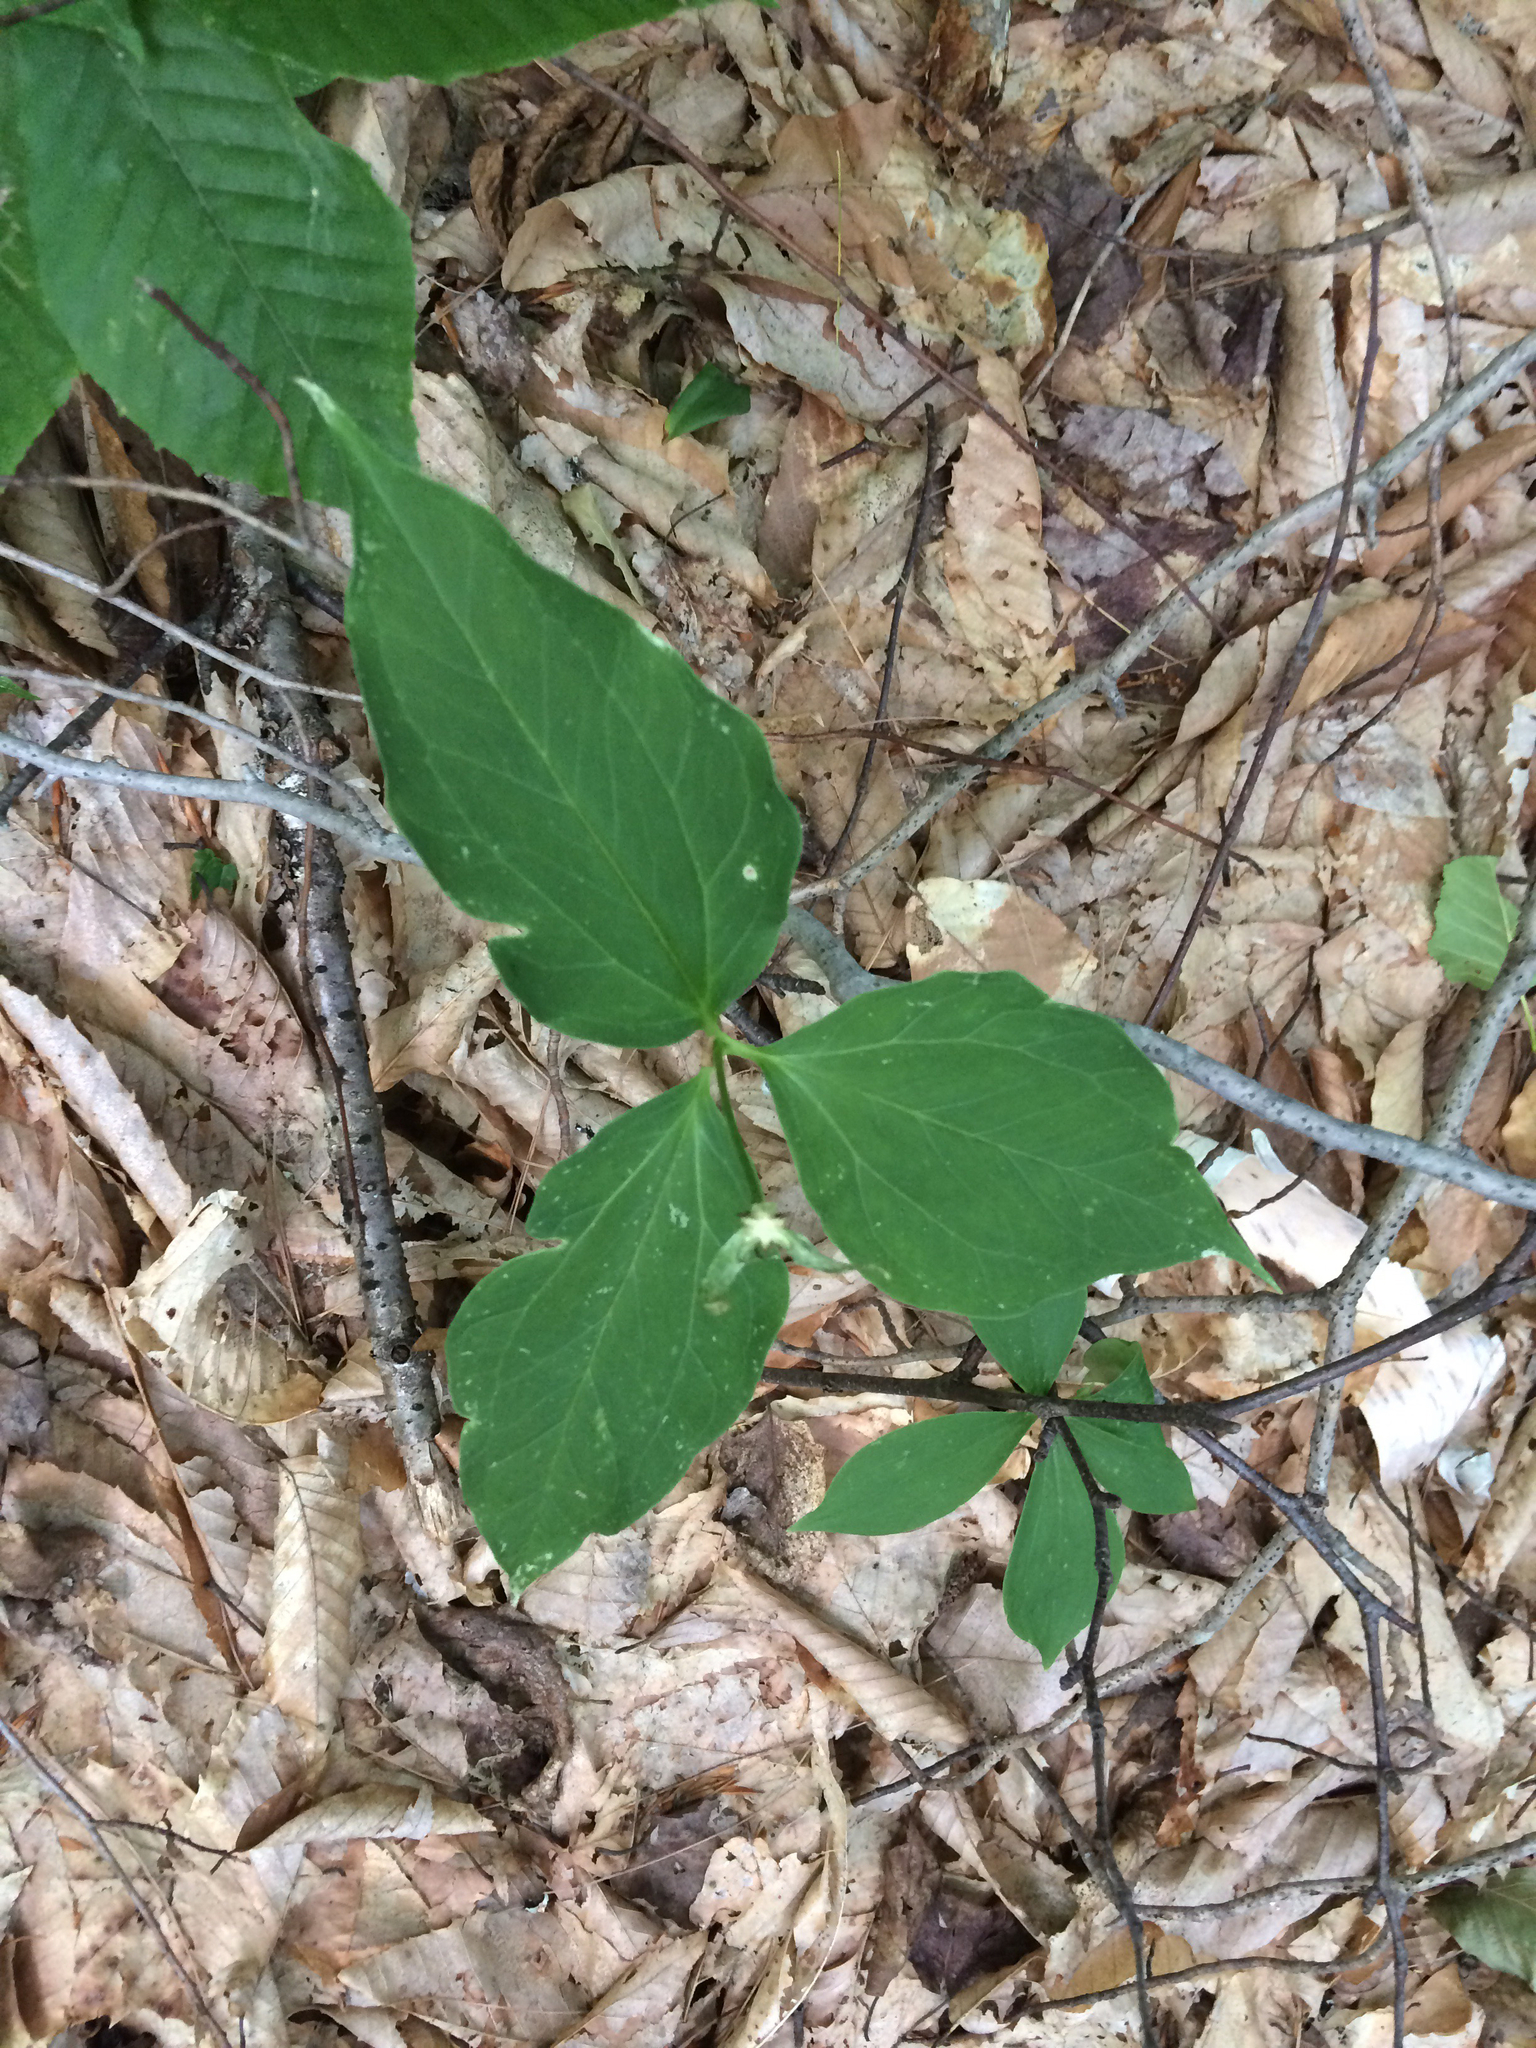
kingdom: Plantae
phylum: Tracheophyta
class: Liliopsida
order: Liliales
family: Melanthiaceae
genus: Trillium
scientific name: Trillium undulatum
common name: Paint trillium
